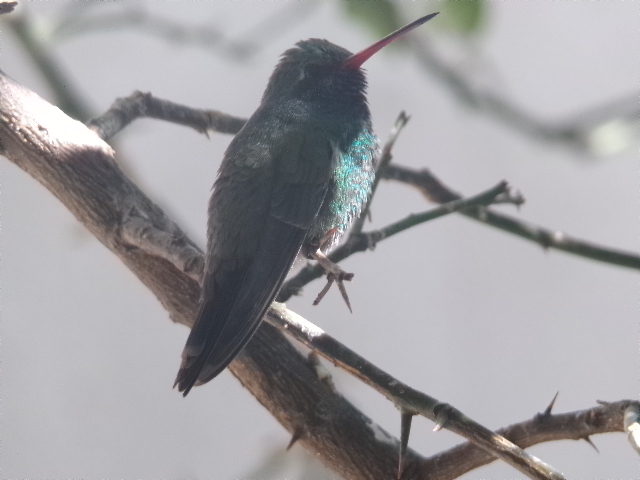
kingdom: Animalia
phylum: Chordata
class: Aves
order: Apodiformes
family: Trochilidae
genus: Cynanthus
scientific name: Cynanthus latirostris
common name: Broad-billed hummingbird
